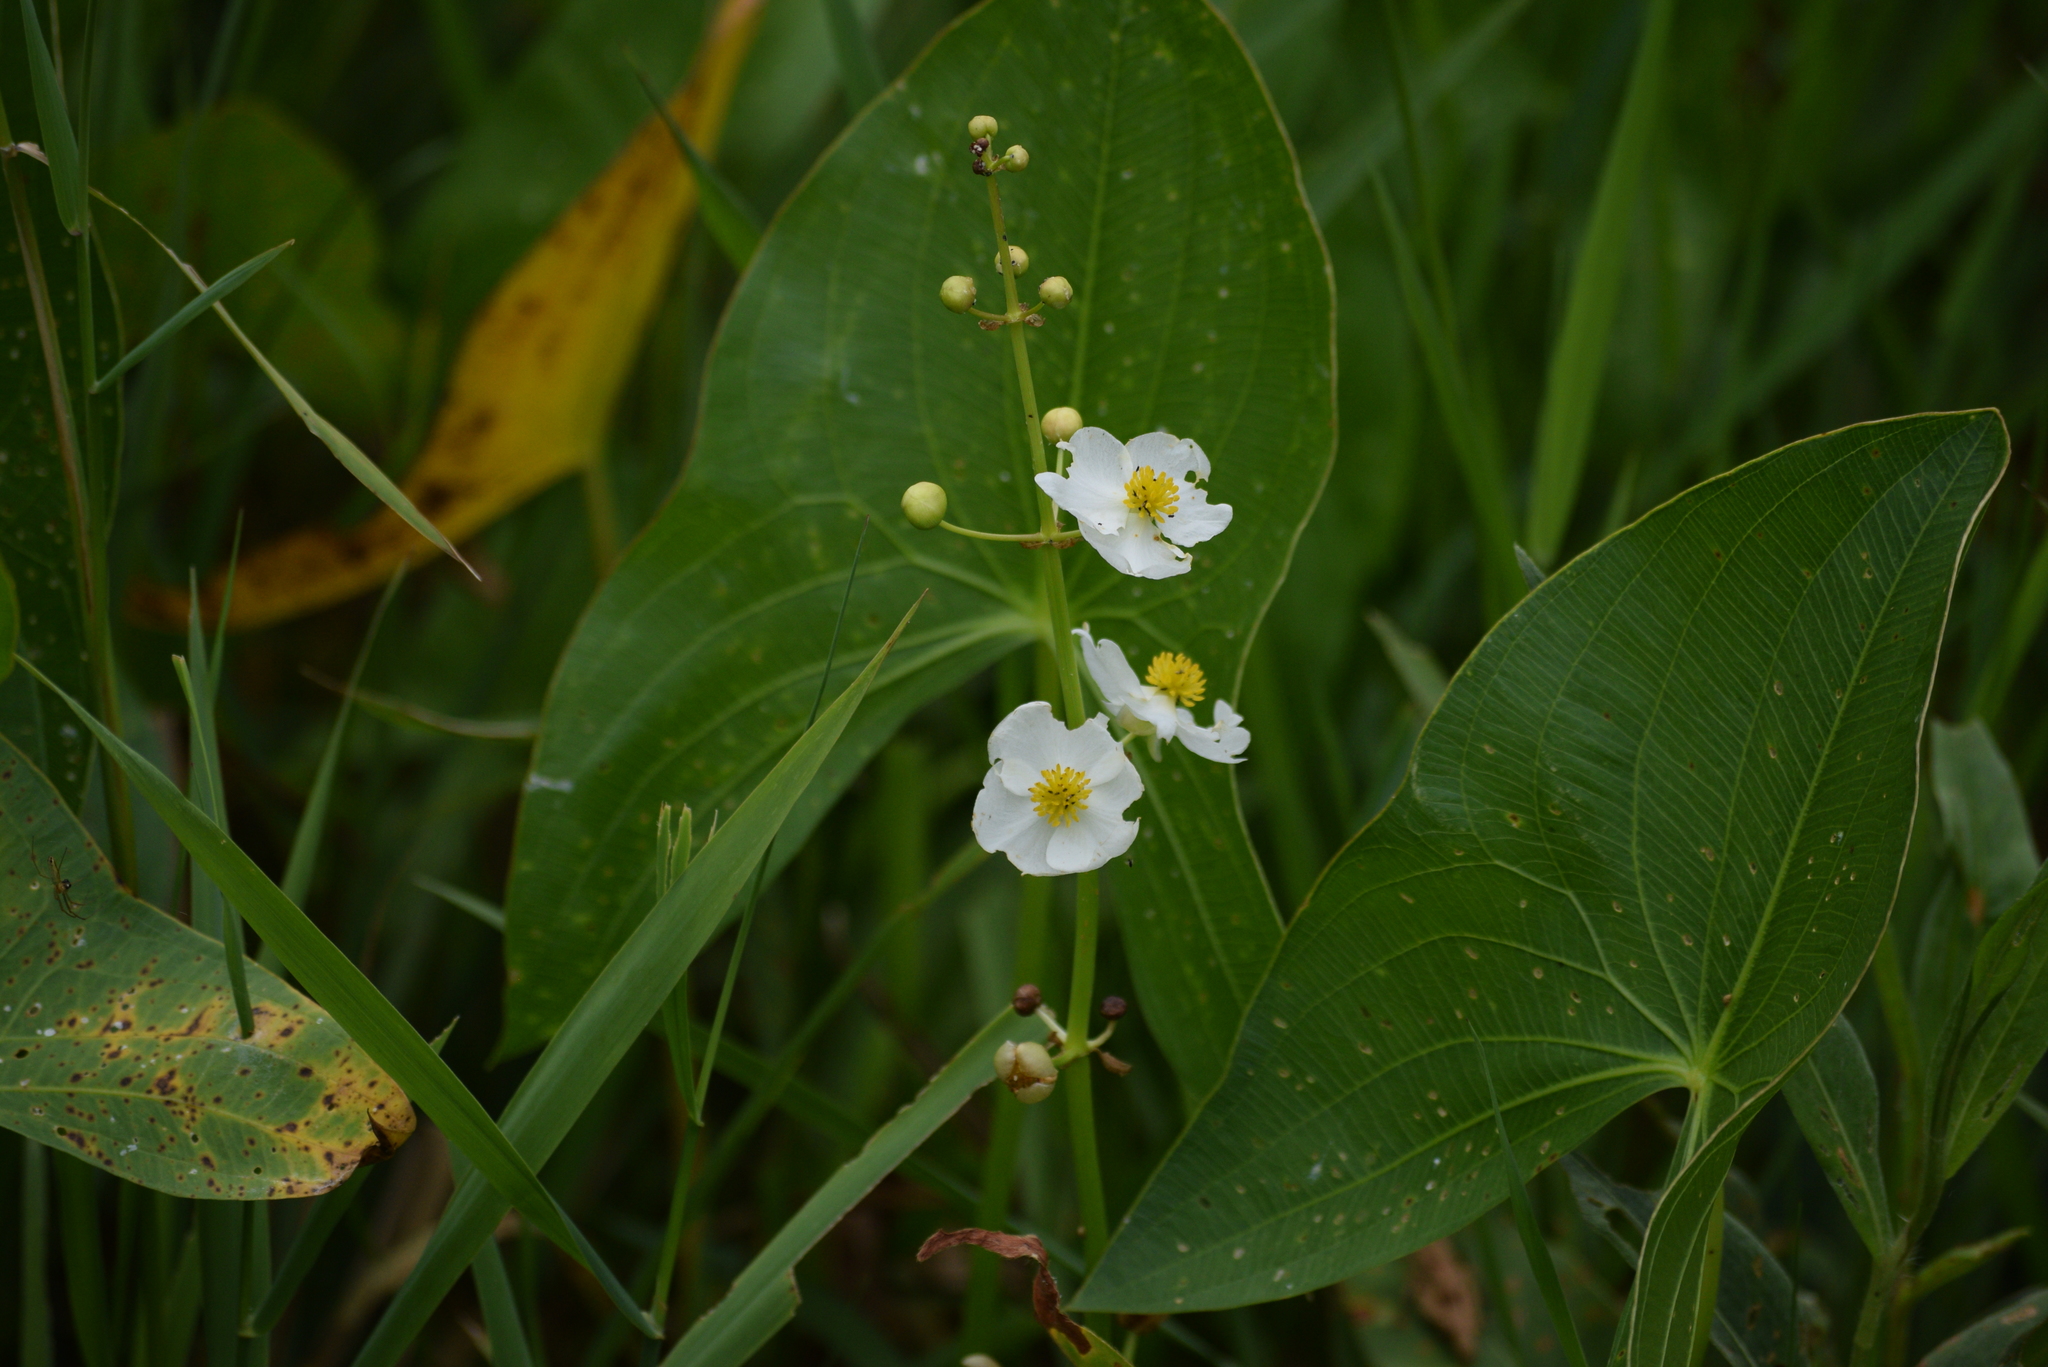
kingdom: Plantae
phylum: Tracheophyta
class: Liliopsida
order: Alismatales
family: Alismataceae
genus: Sagittaria
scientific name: Sagittaria latifolia
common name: Duck-potato
